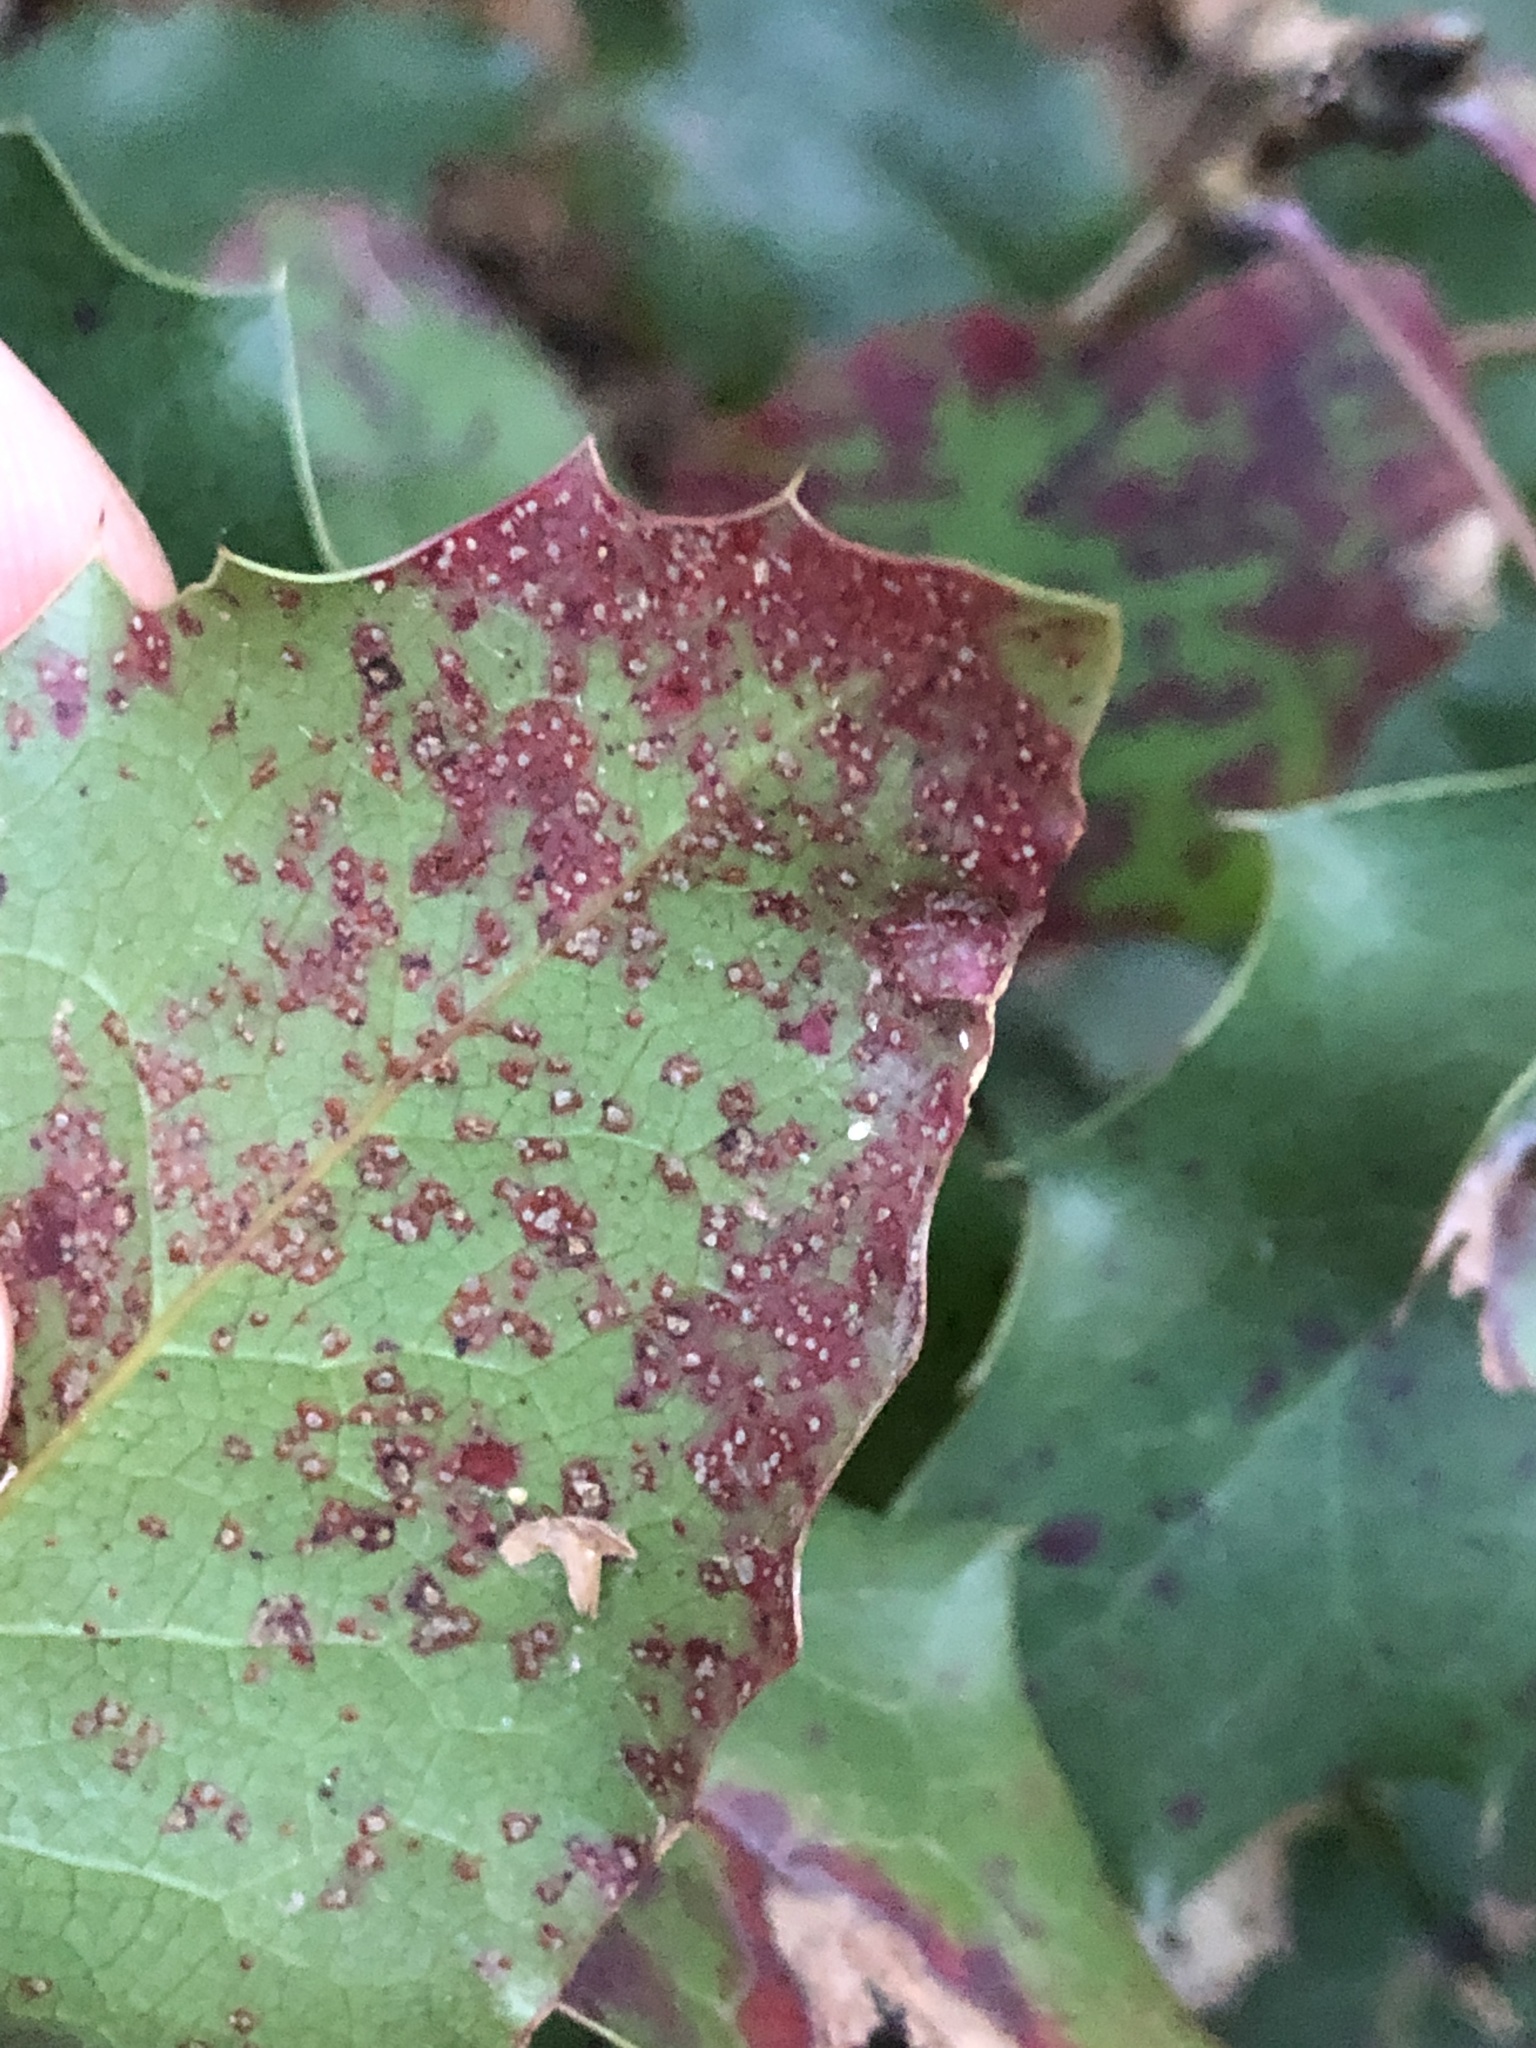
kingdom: Fungi
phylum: Basidiomycota
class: Pucciniomycetes
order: Pucciniales
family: Pucciniaceae
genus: Cumminsiella
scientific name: Cumminsiella mirabilissima
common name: Mahonia rust
